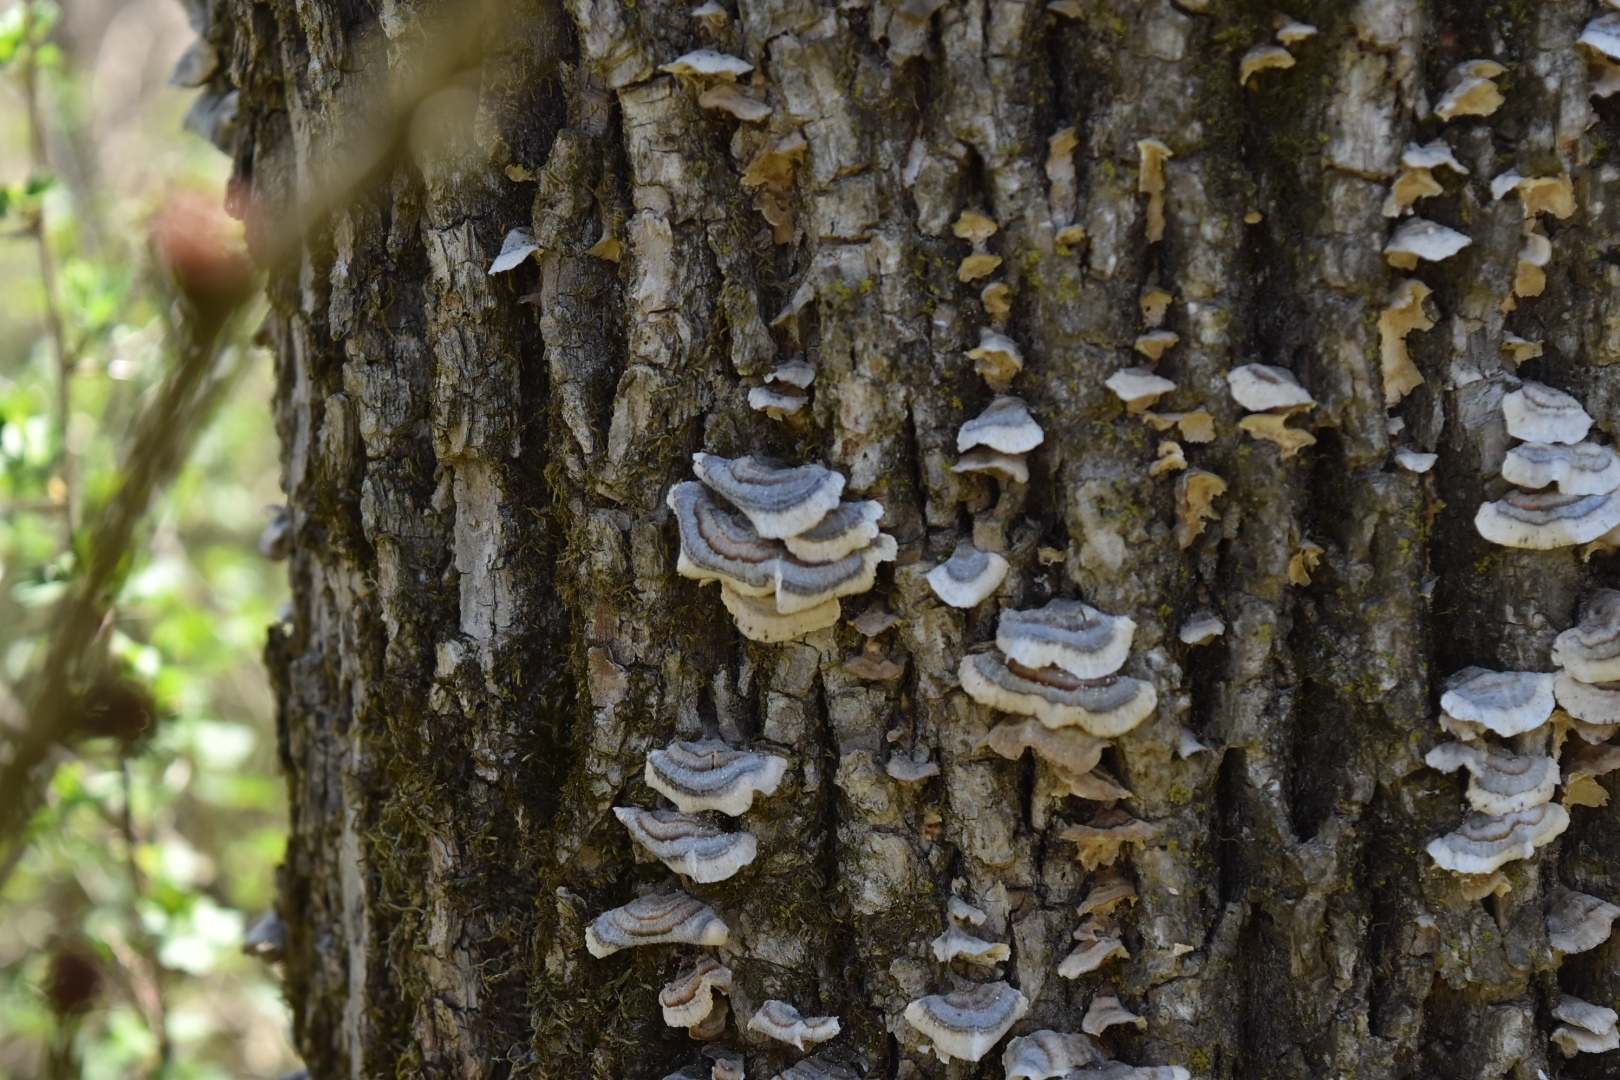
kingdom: Fungi
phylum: Basidiomycota
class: Agaricomycetes
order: Polyporales
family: Polyporaceae
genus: Trametes
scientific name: Trametes versicolor
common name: Turkeytail
